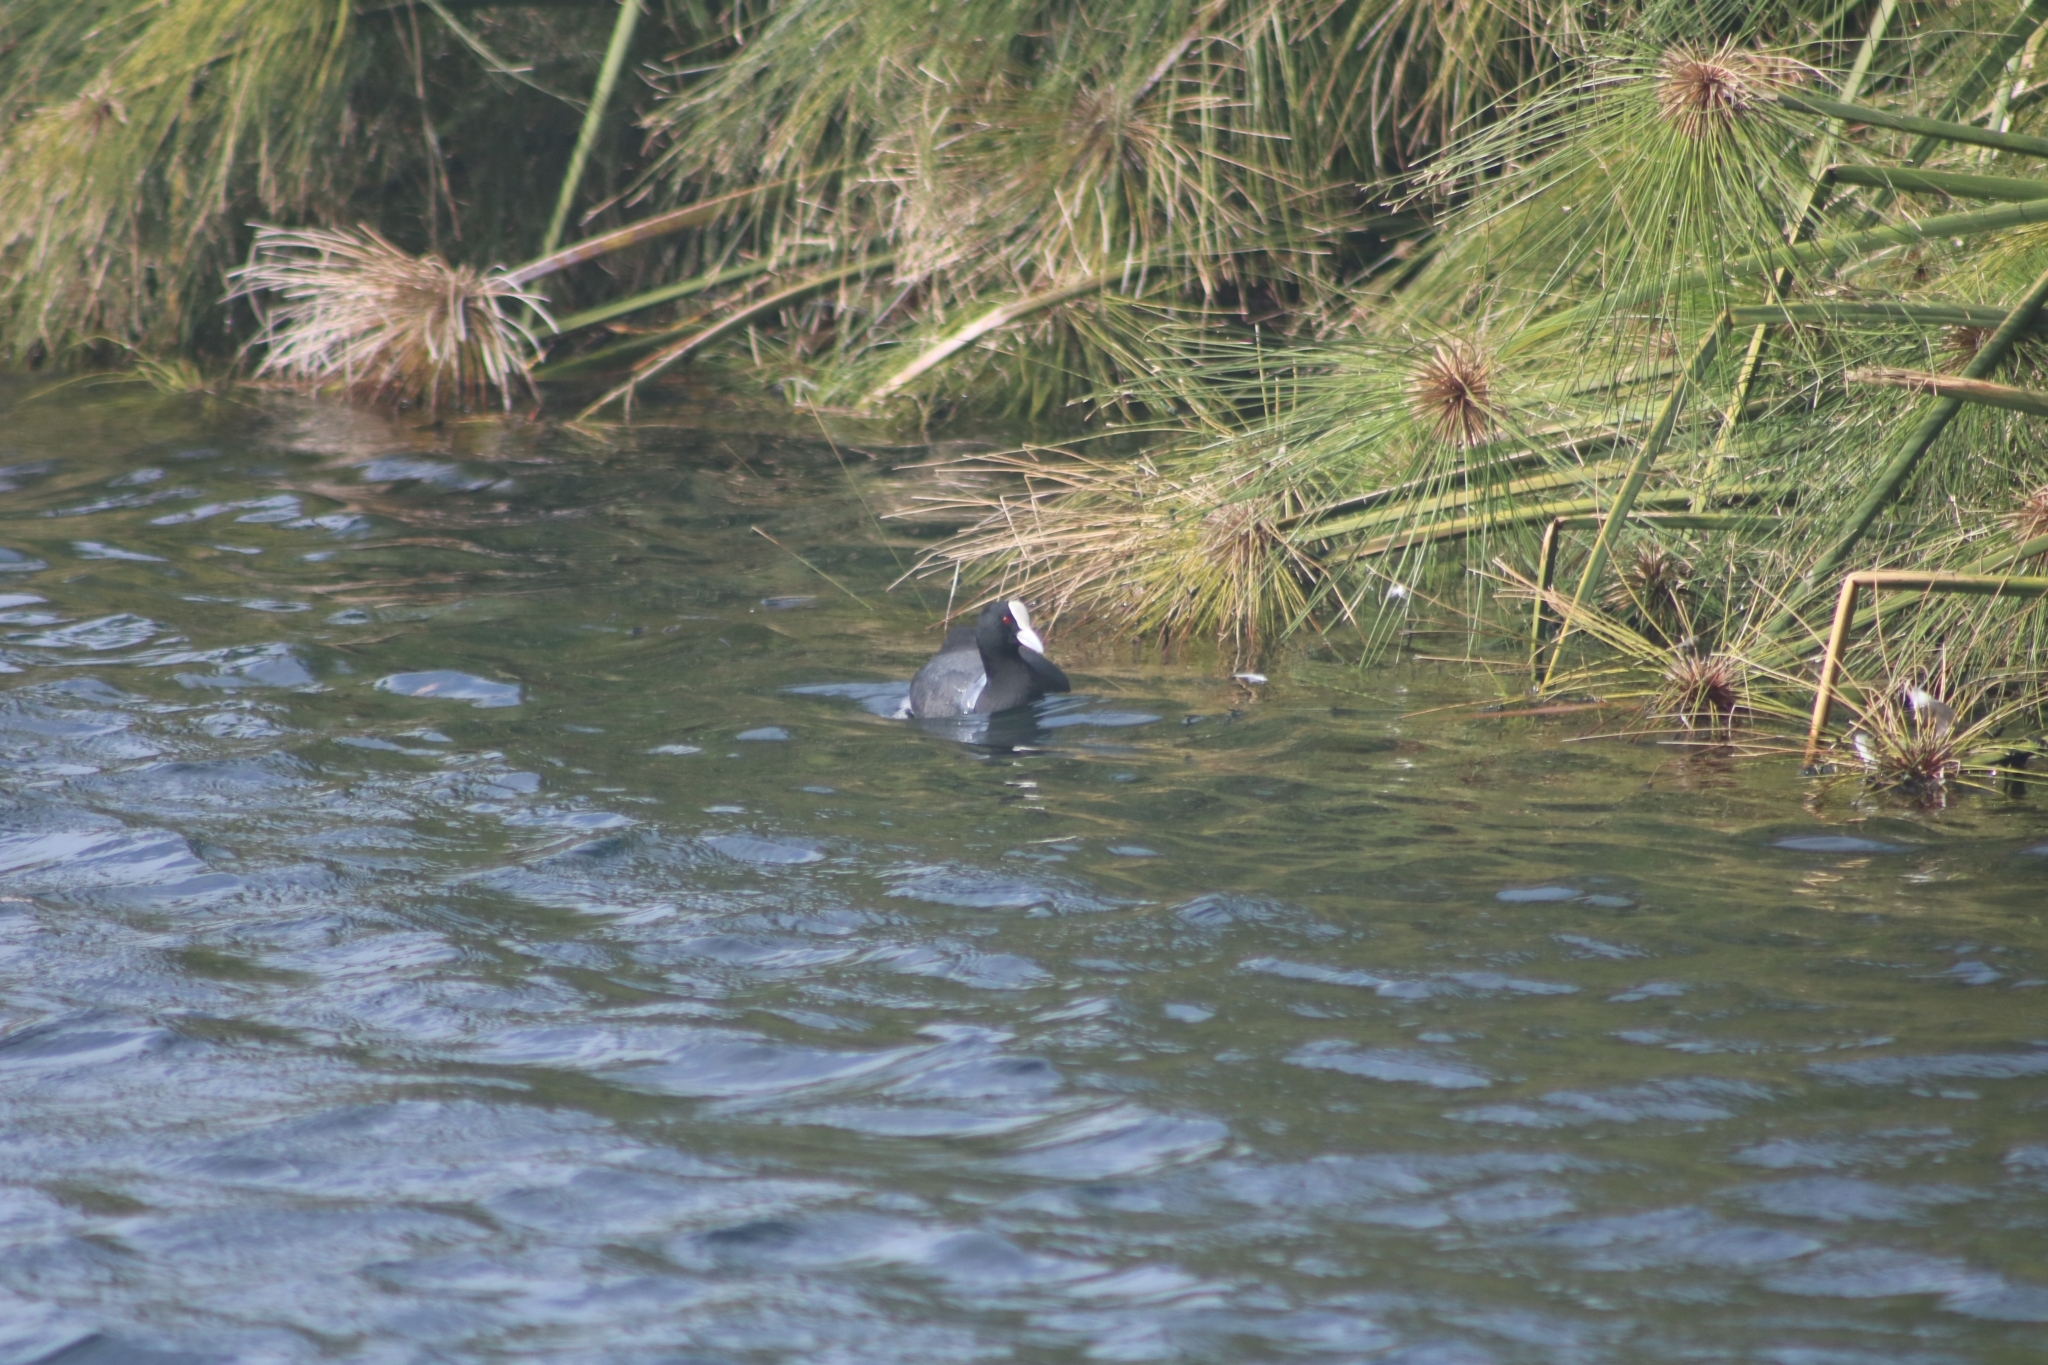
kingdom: Animalia
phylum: Chordata
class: Aves
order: Gruiformes
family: Rallidae
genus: Fulica
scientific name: Fulica atra
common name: Eurasian coot
